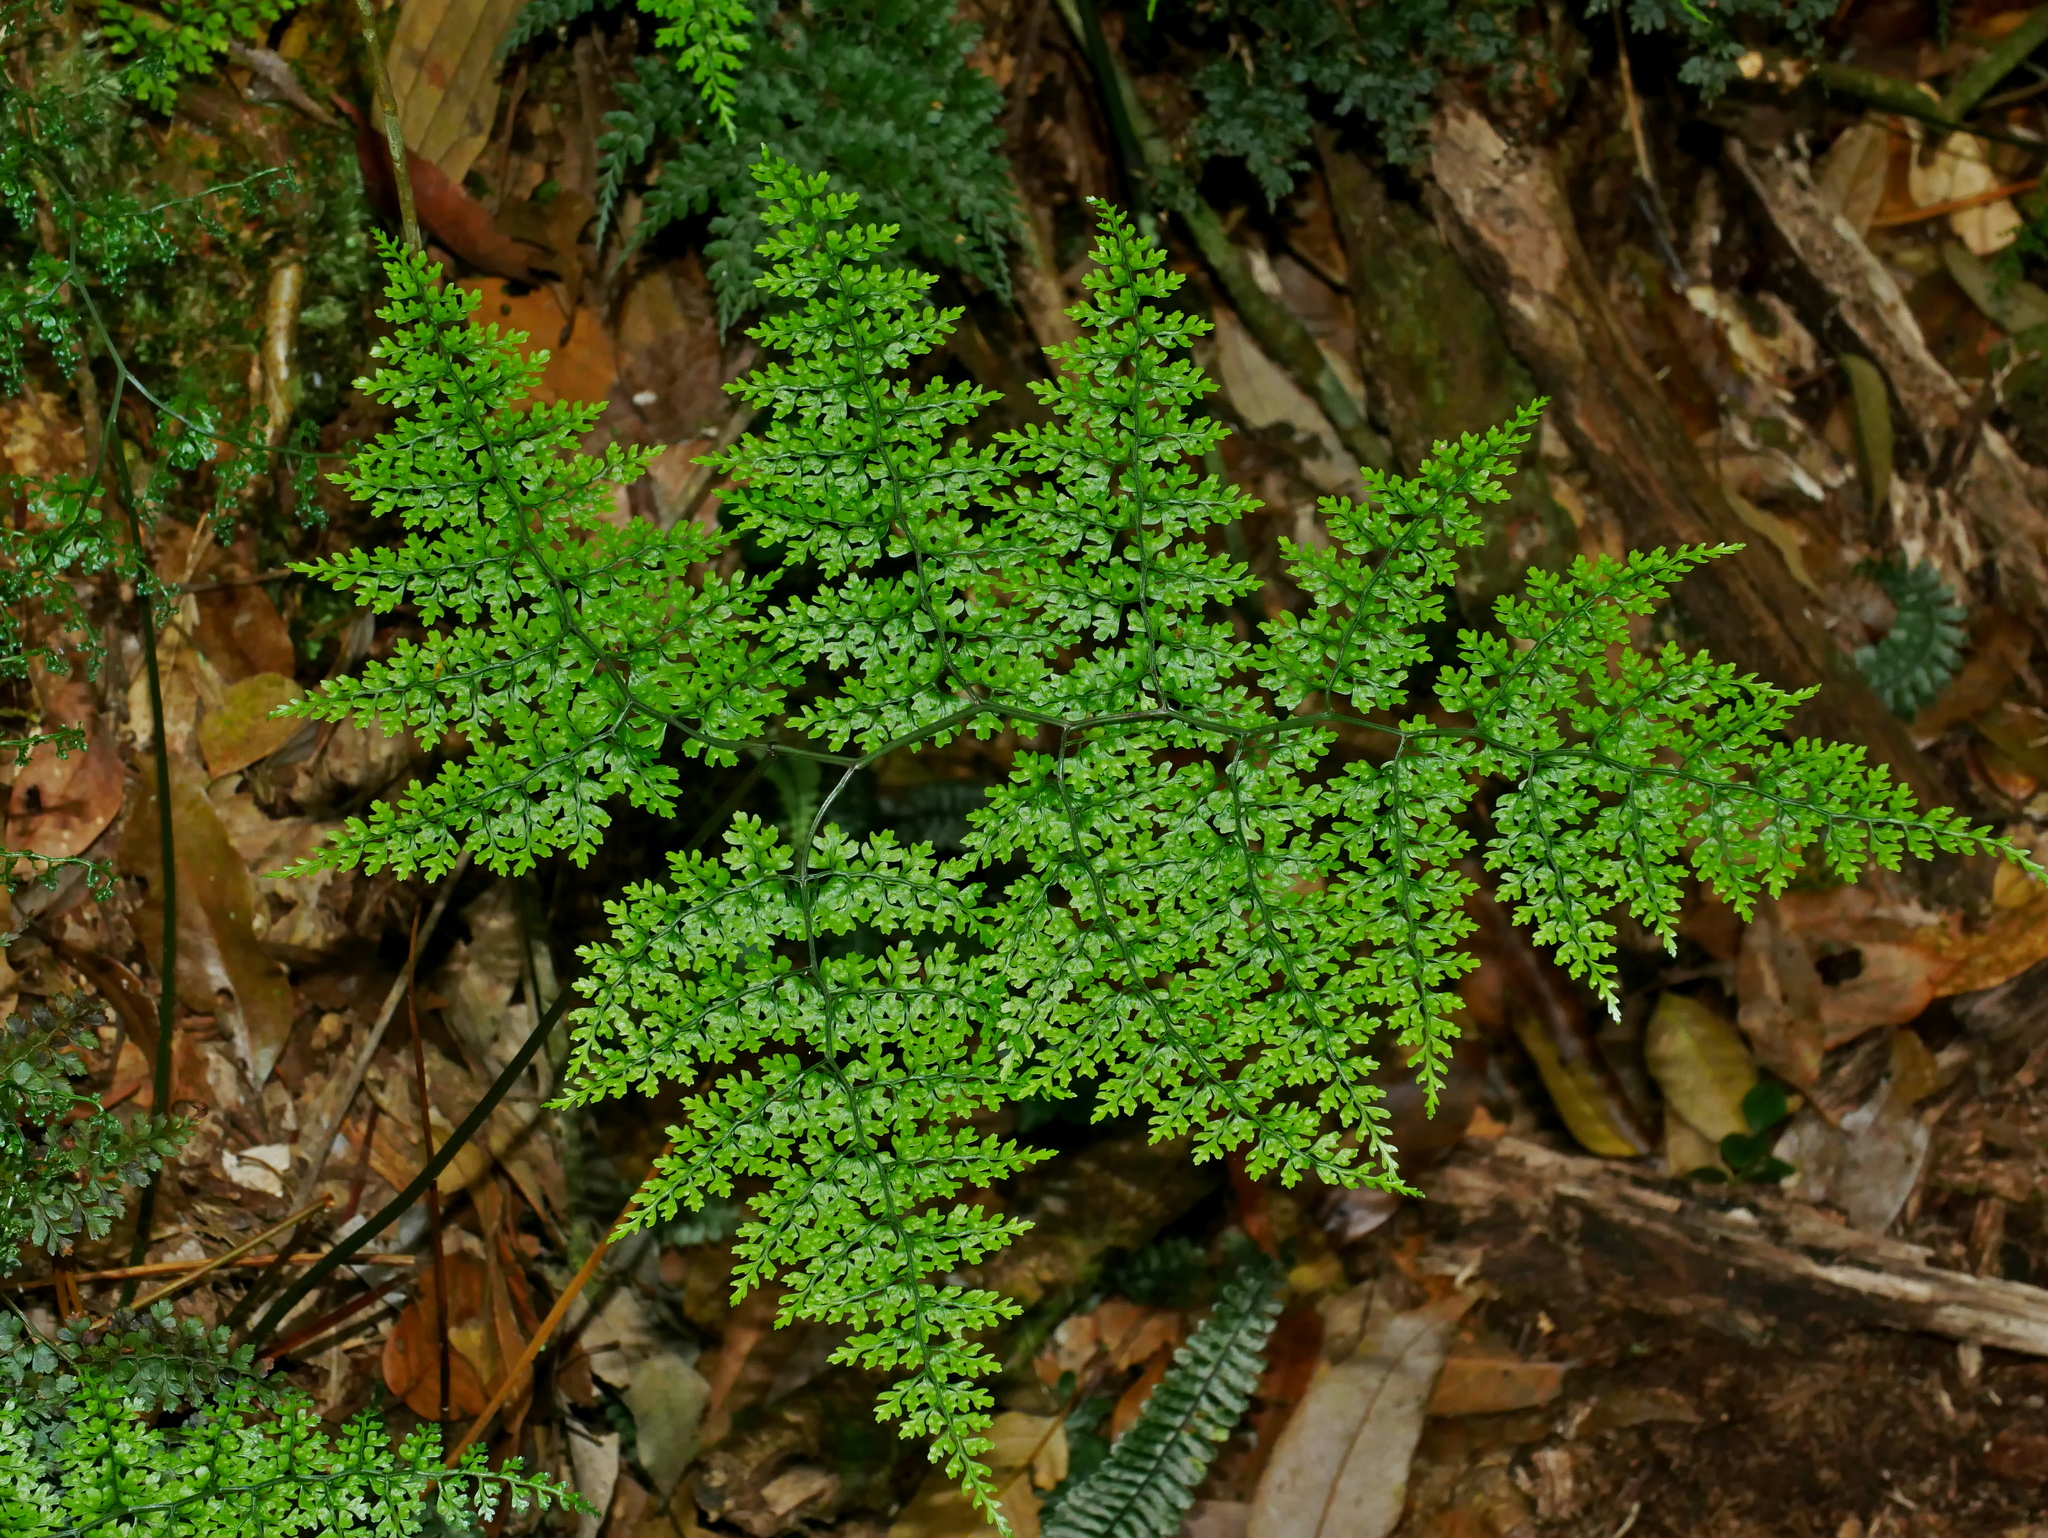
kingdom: Plantae
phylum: Tracheophyta
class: Polypodiopsida
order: Polypodiales
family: Dryopteridaceae
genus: Dryopteris
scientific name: Dryopteris diffracta
